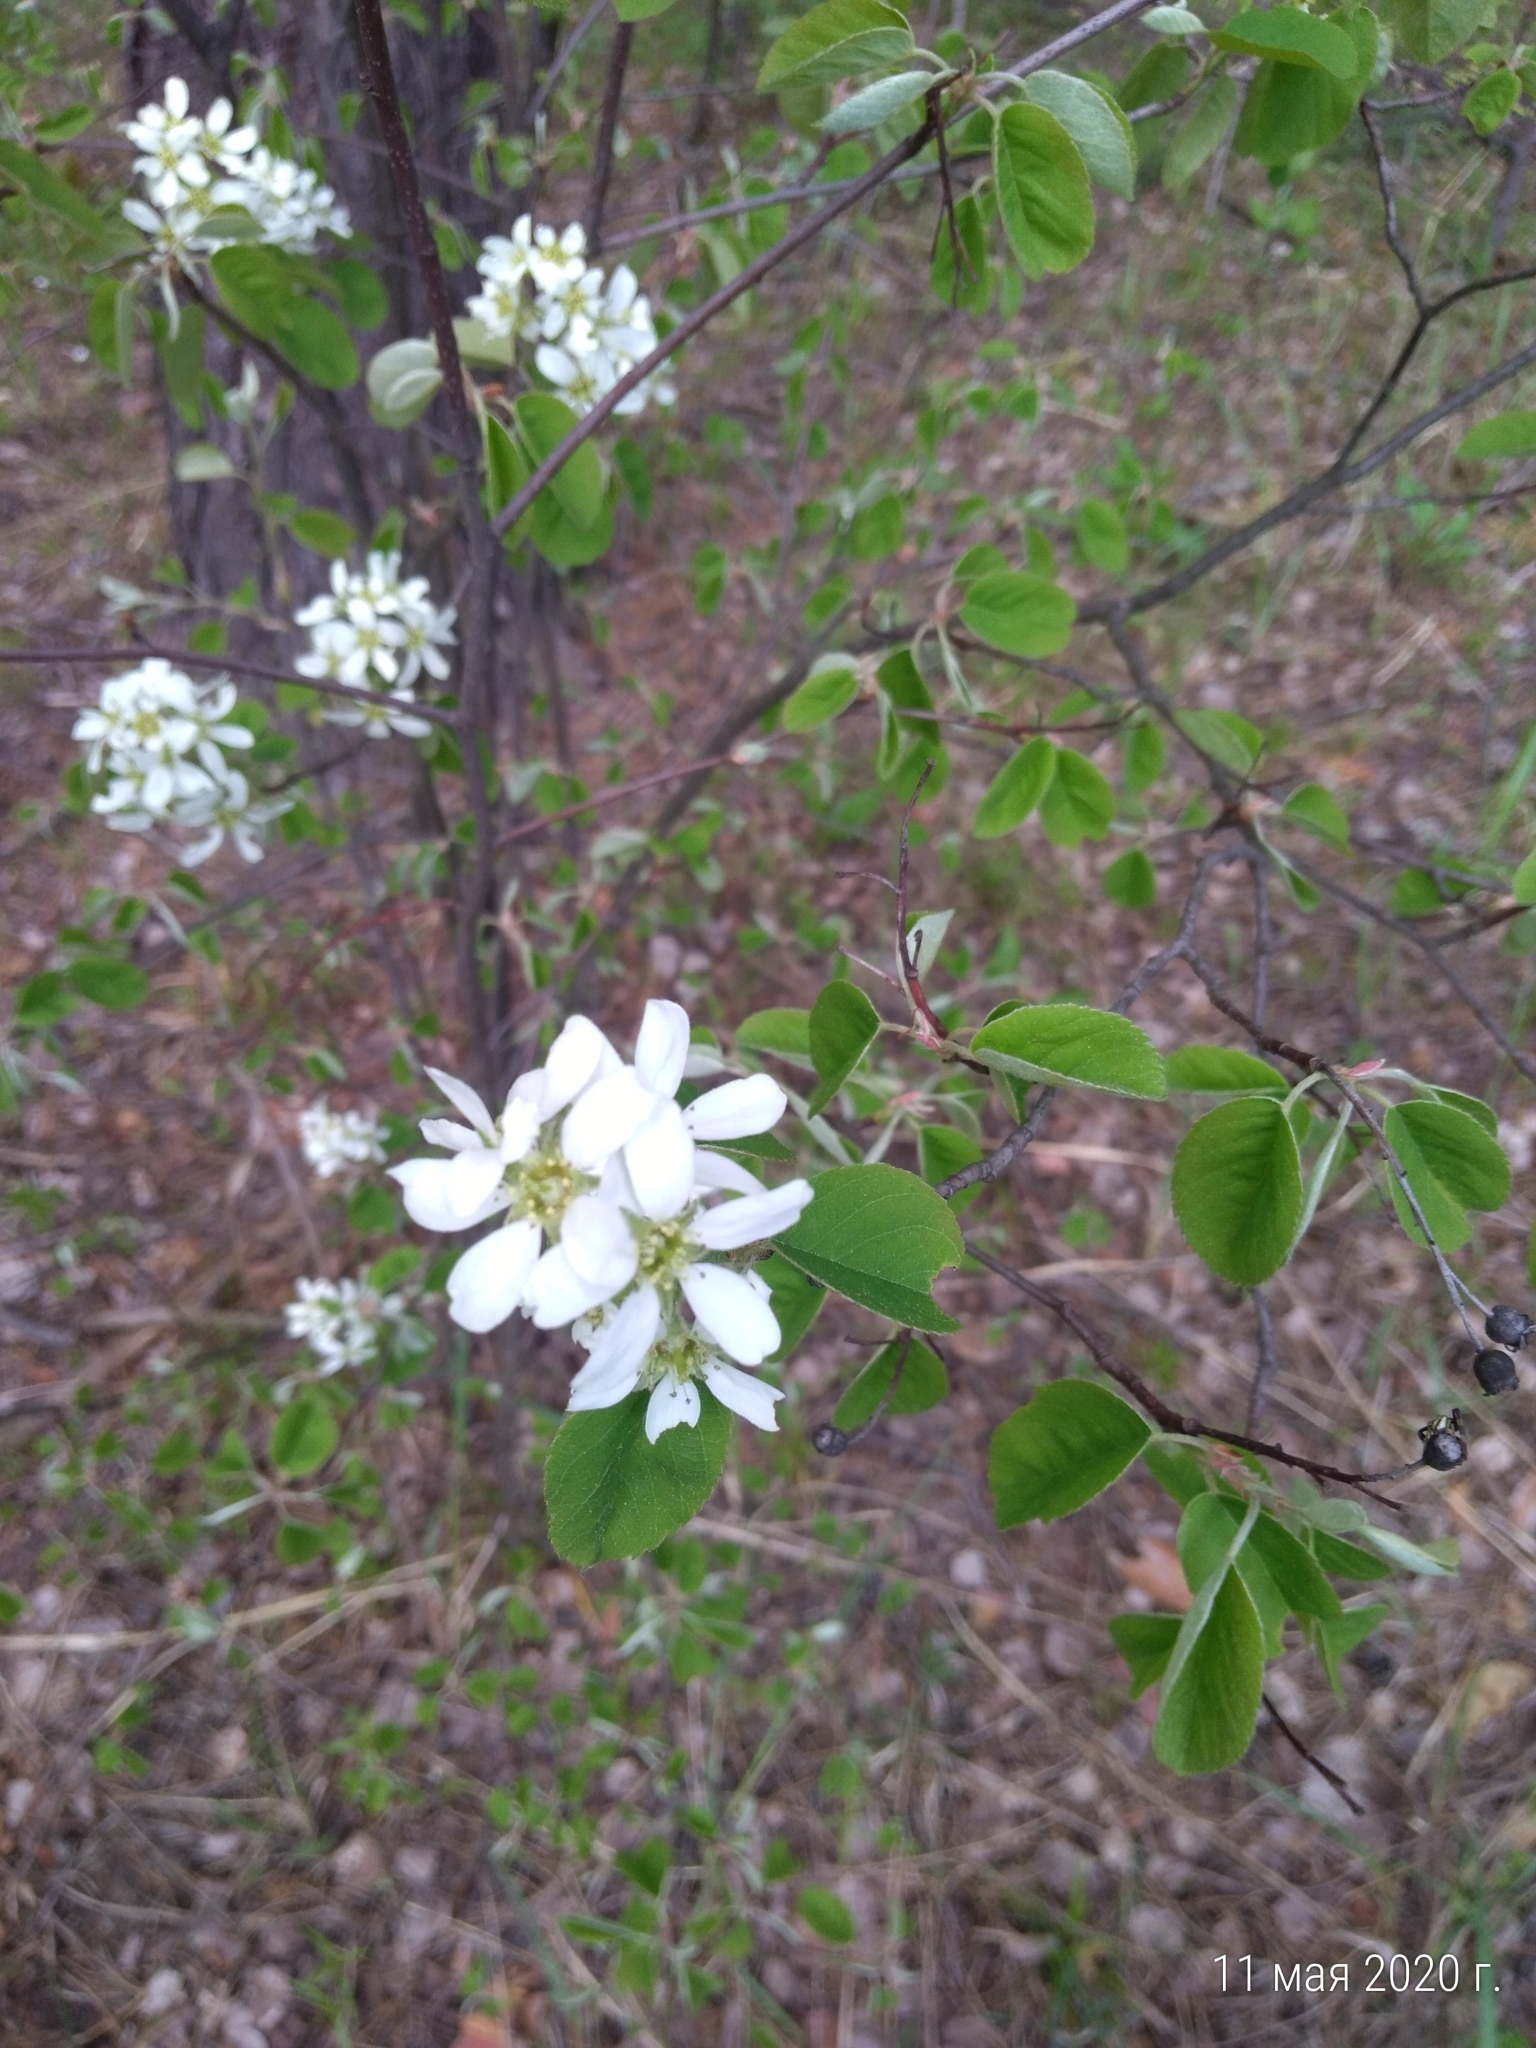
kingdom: Plantae
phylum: Tracheophyta
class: Magnoliopsida
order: Rosales
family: Rosaceae
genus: Amelanchier
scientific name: Amelanchier
